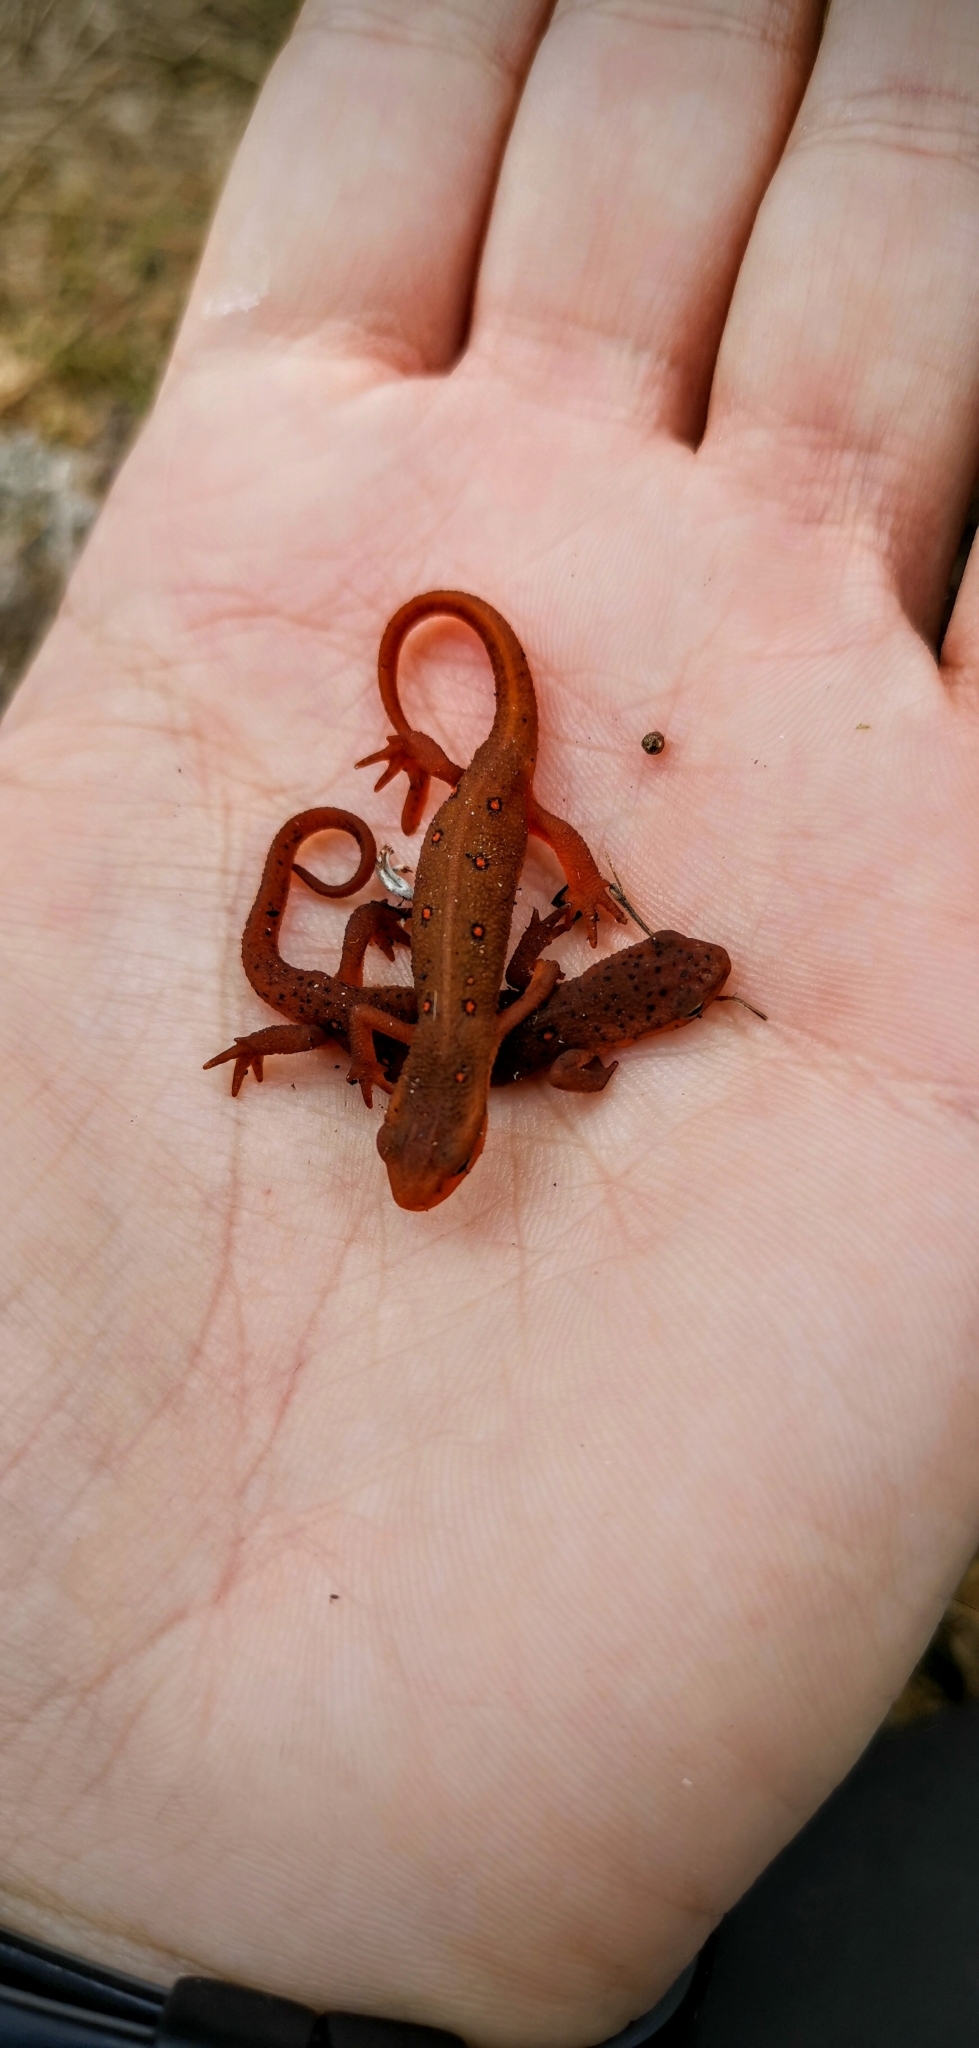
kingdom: Animalia
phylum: Chordata
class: Amphibia
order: Caudata
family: Salamandridae
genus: Notophthalmus
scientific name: Notophthalmus viridescens
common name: Eastern newt
